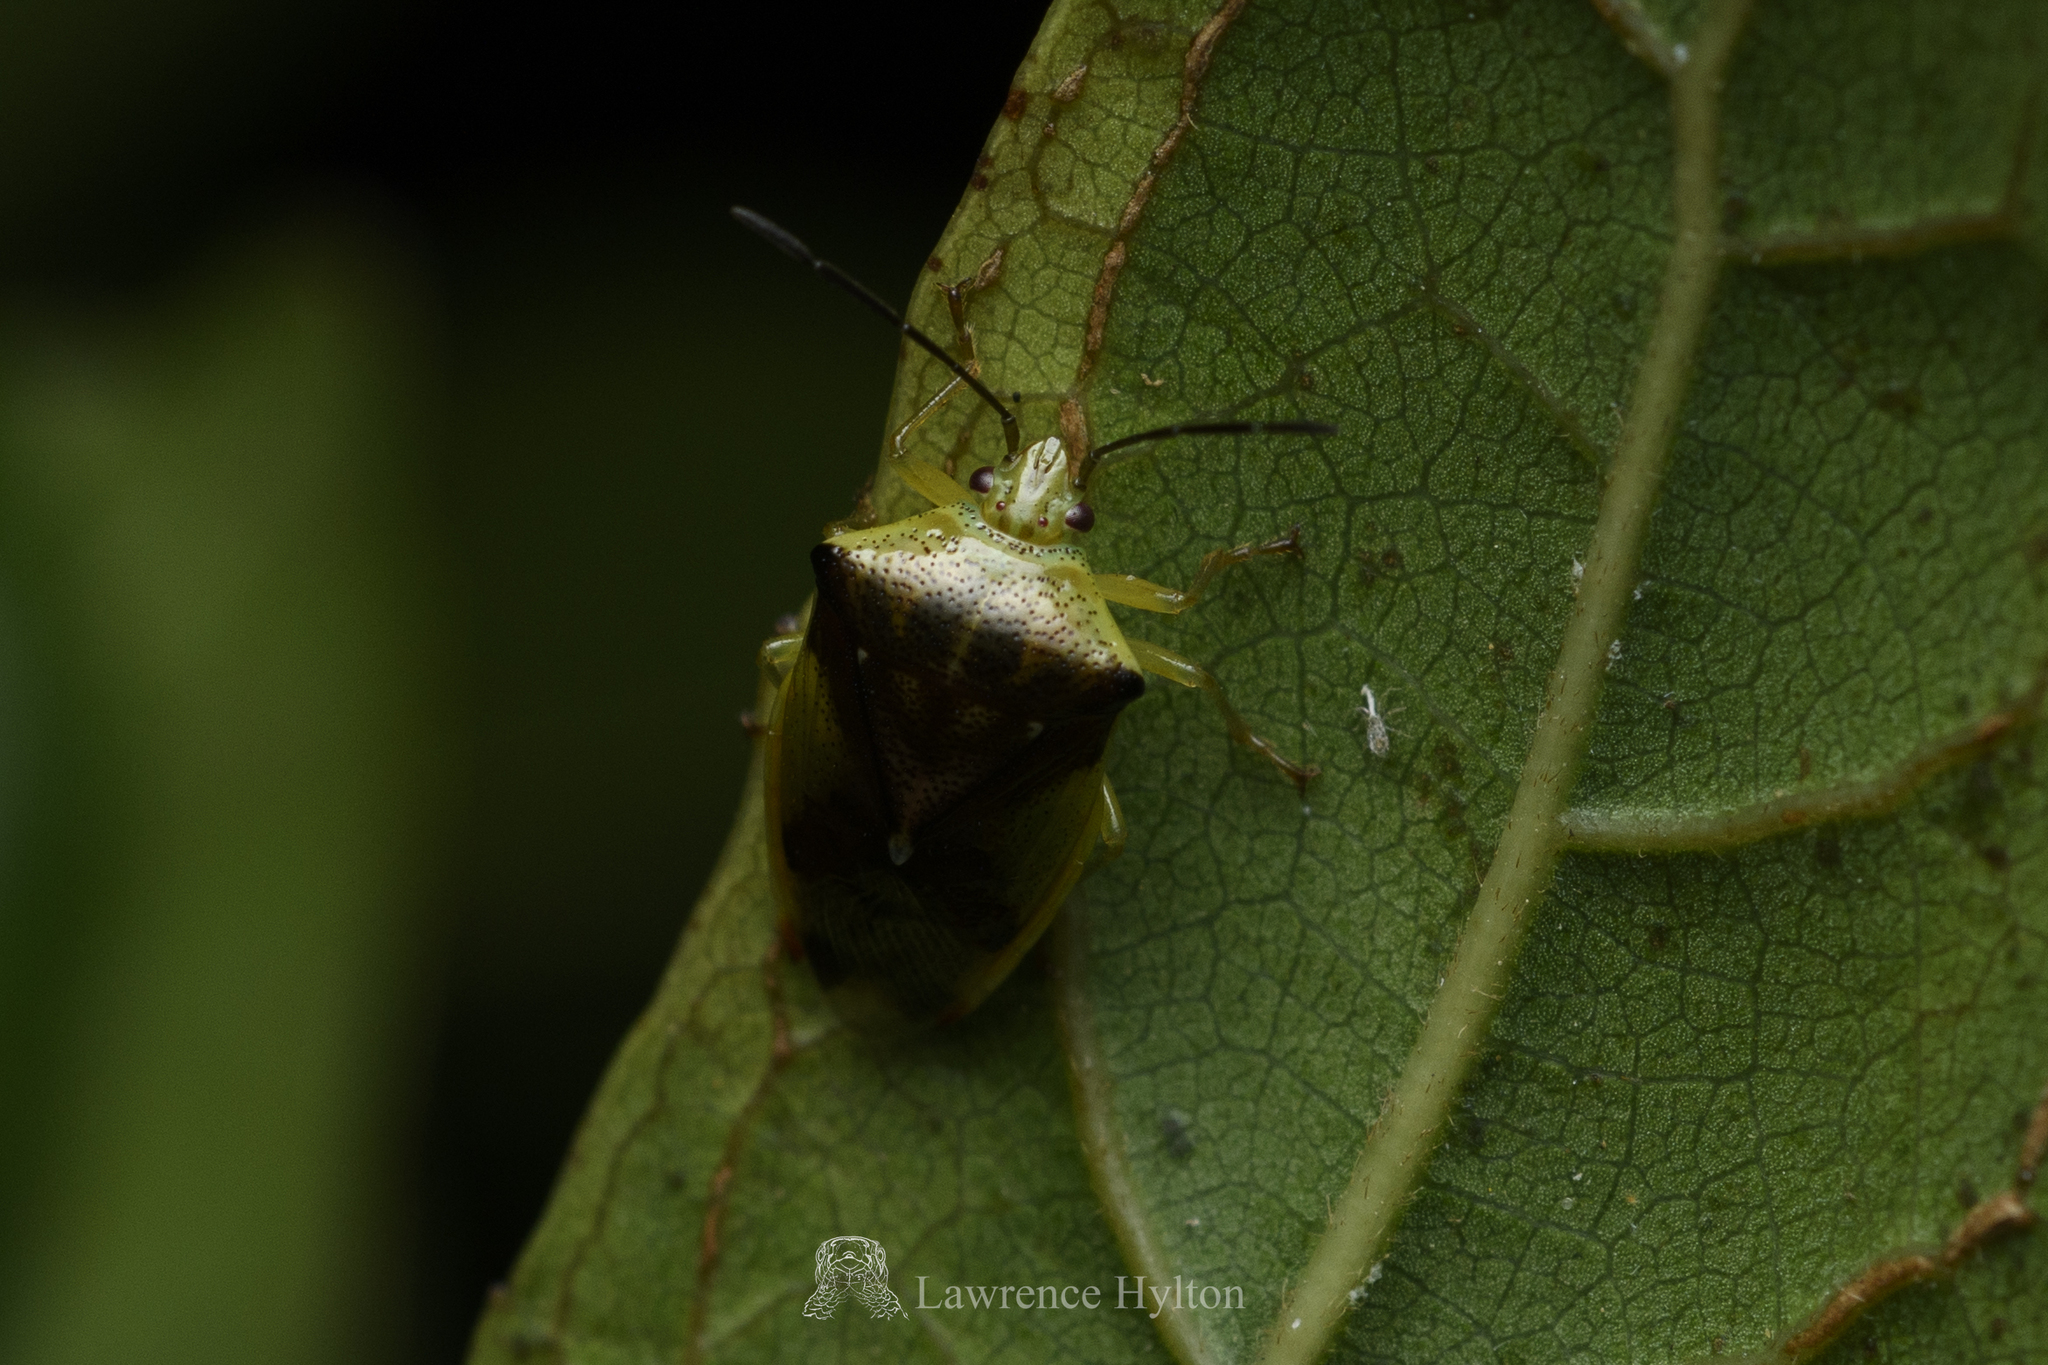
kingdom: Animalia
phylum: Arthropoda
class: Insecta
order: Hemiptera
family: Acanthosomatidae
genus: Elasmostethus
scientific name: Elasmostethus nubilus
